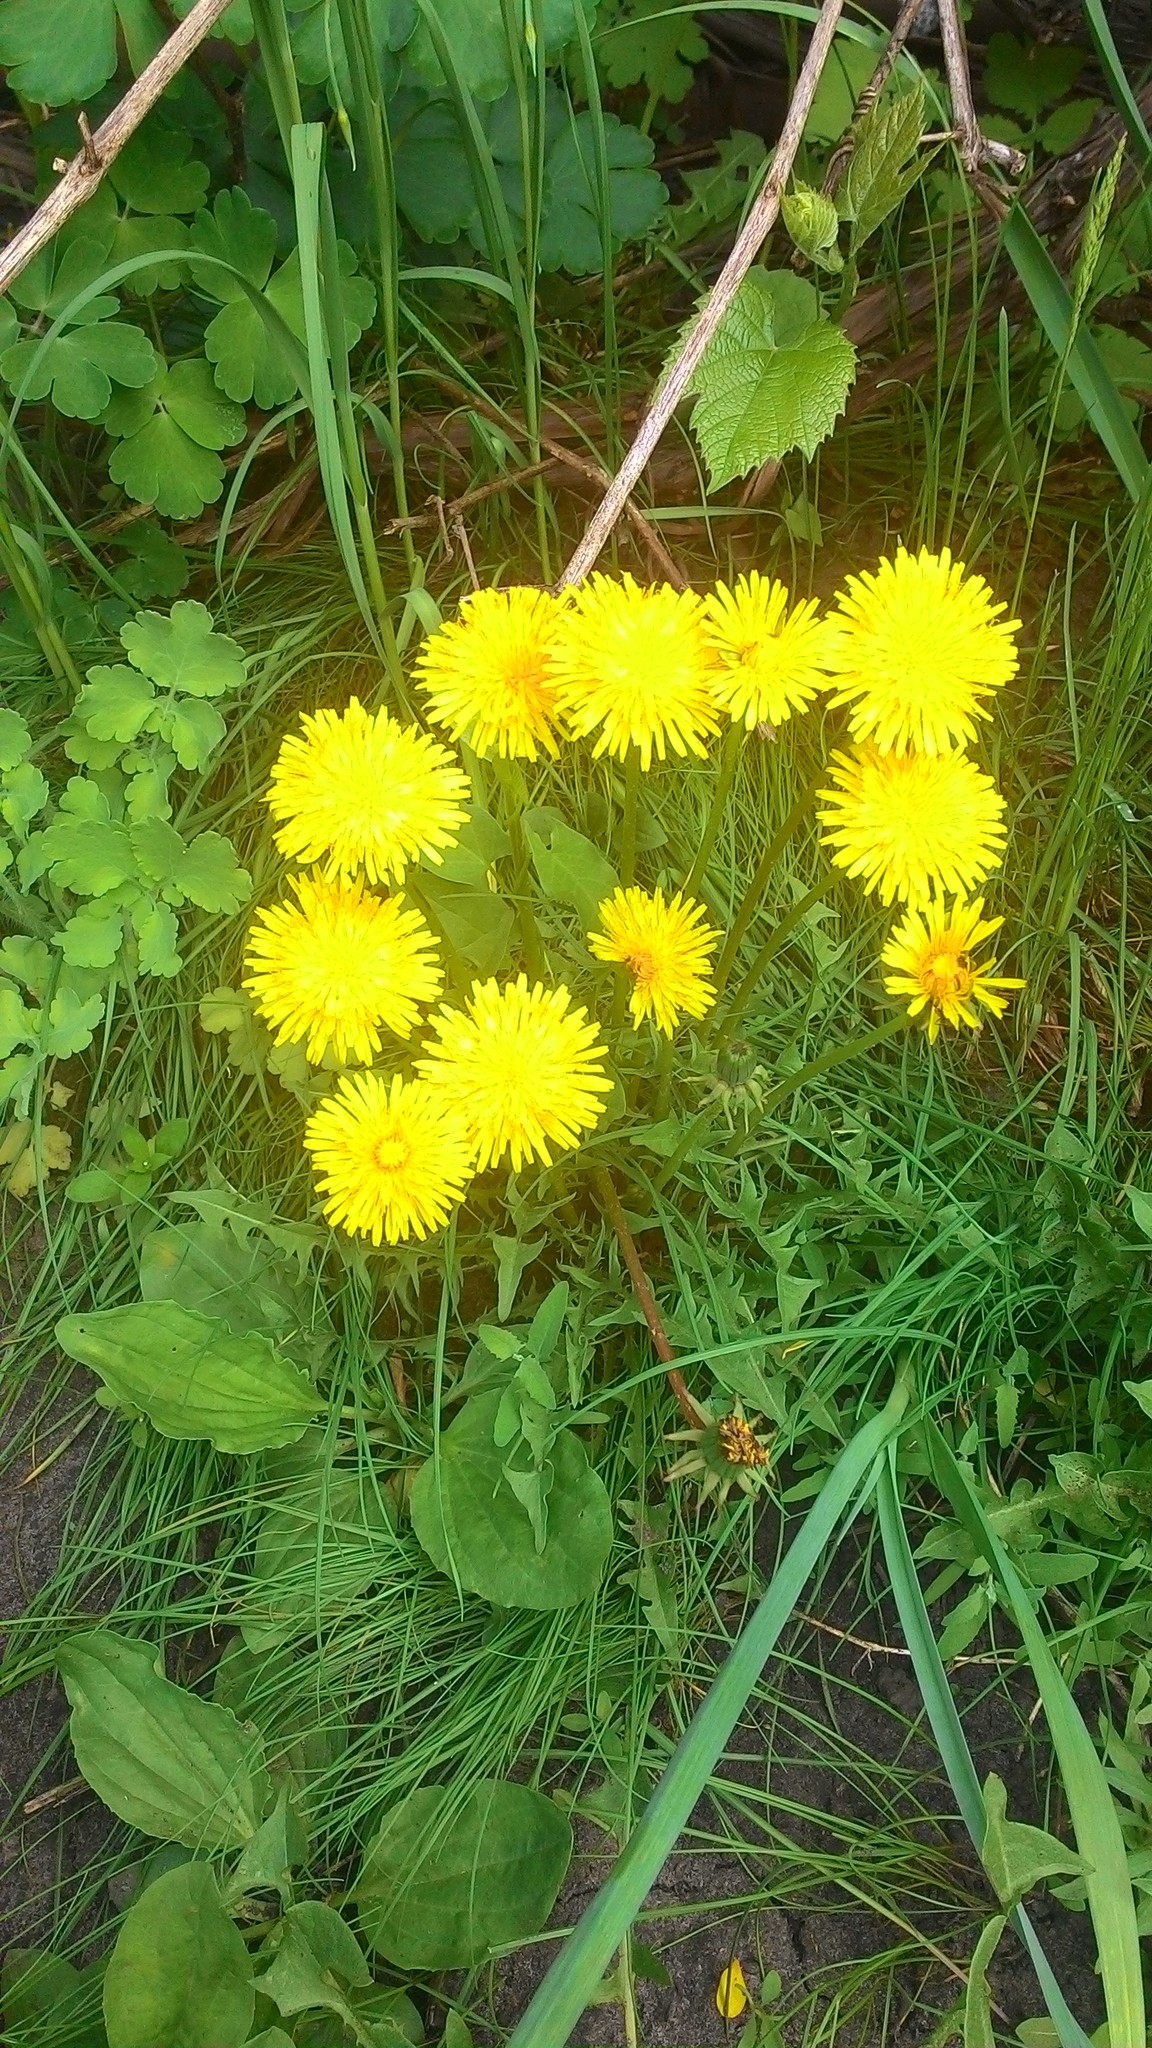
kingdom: Plantae
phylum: Tracheophyta
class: Magnoliopsida
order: Asterales
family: Asteraceae
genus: Taraxacum
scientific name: Taraxacum officinale
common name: Common dandelion
